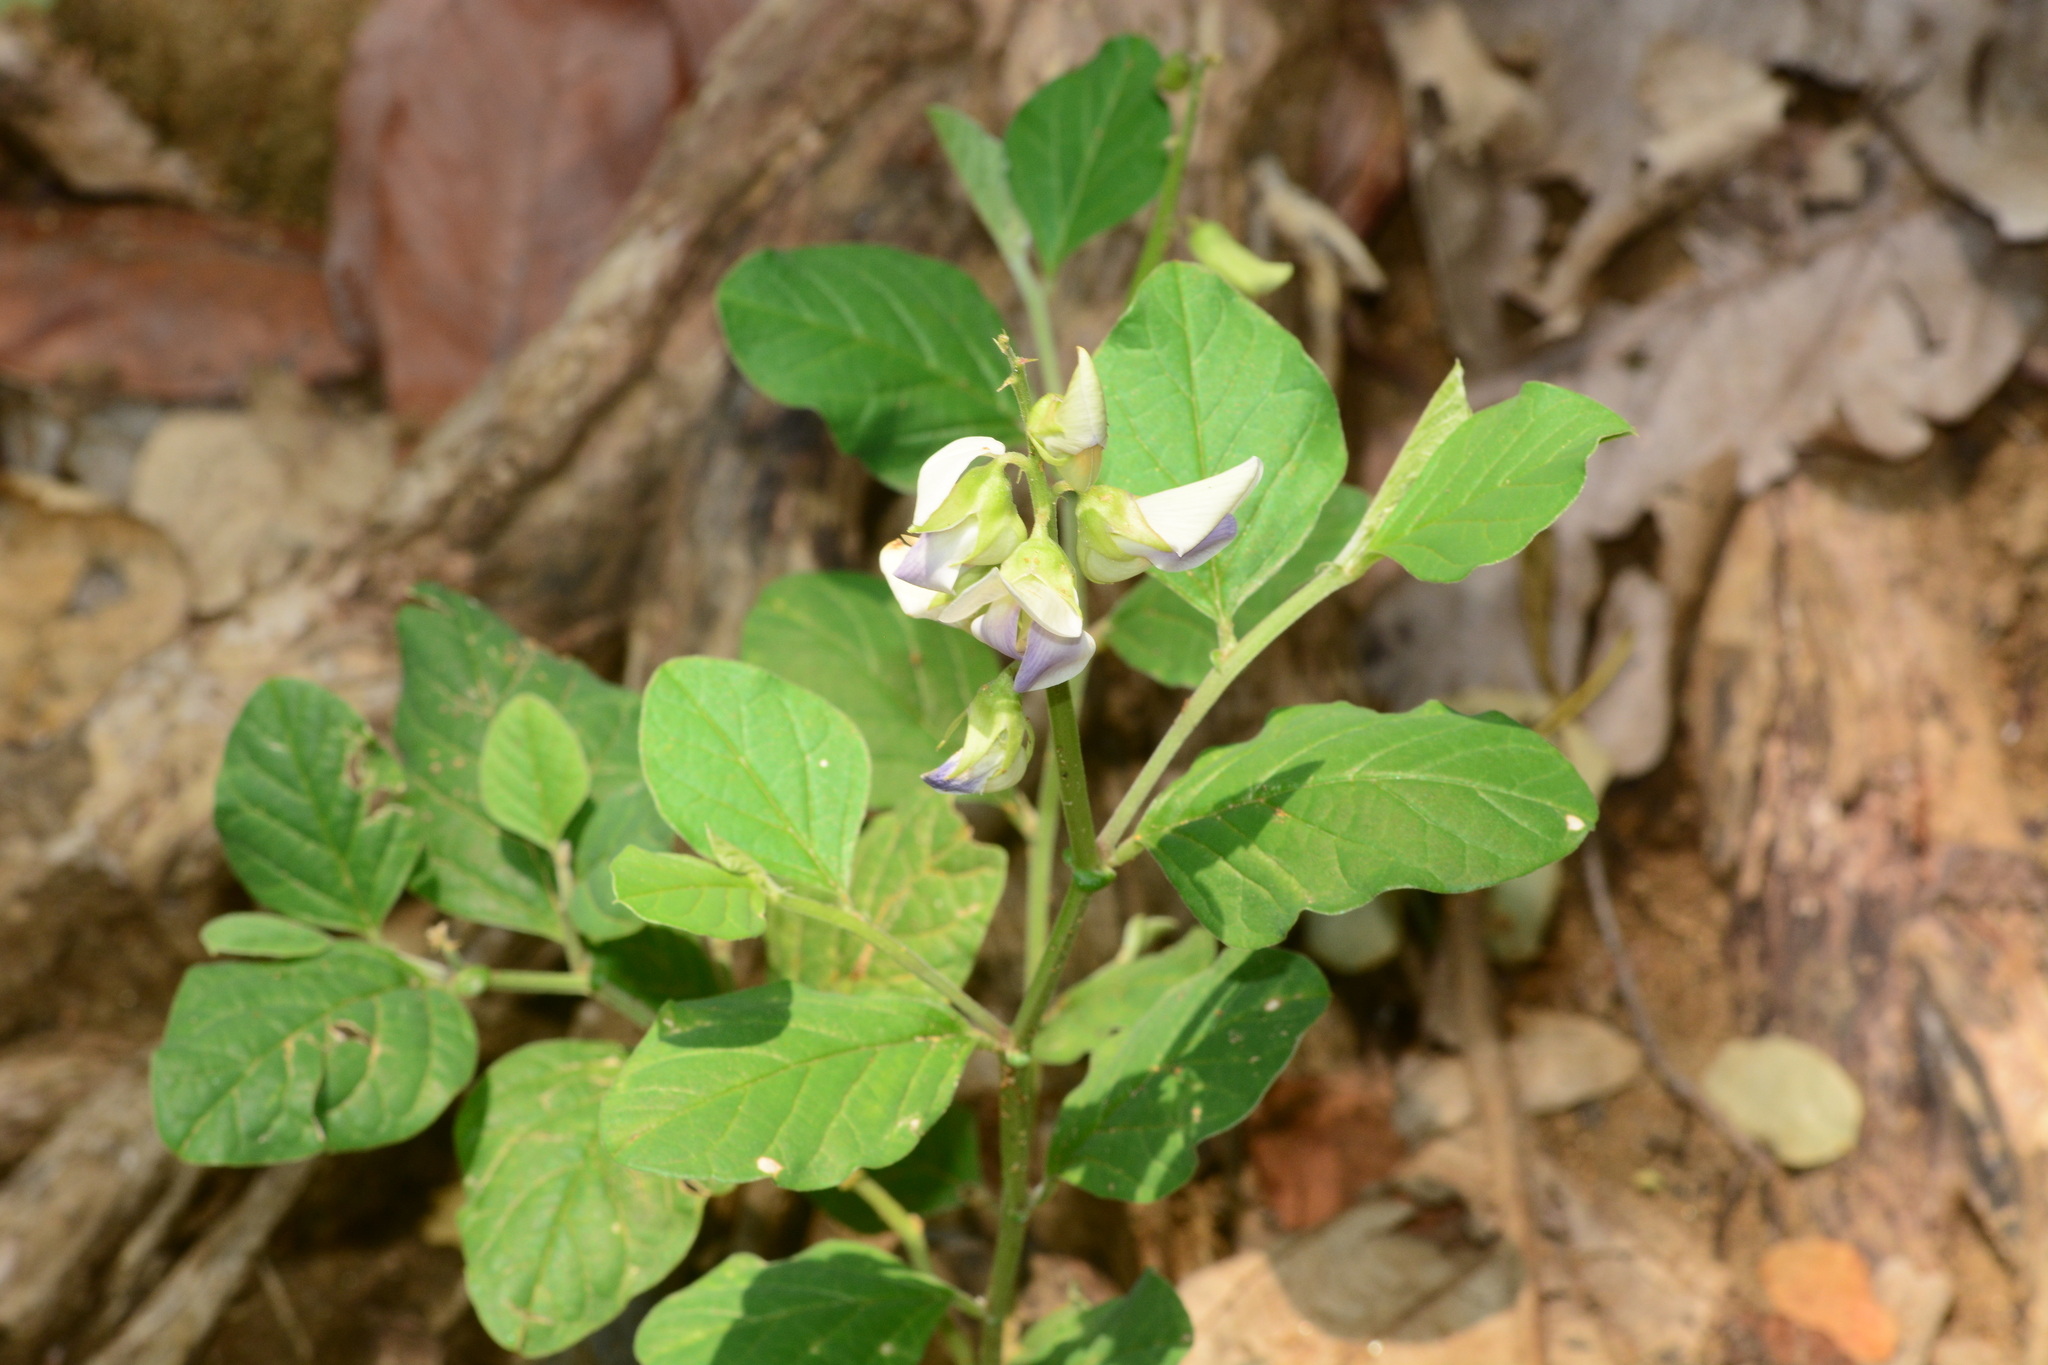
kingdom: Plantae
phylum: Tracheophyta
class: Magnoliopsida
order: Fabales
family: Fabaceae
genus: Crotalaria
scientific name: Crotalaria verrucosa
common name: Blue rattlesnake
